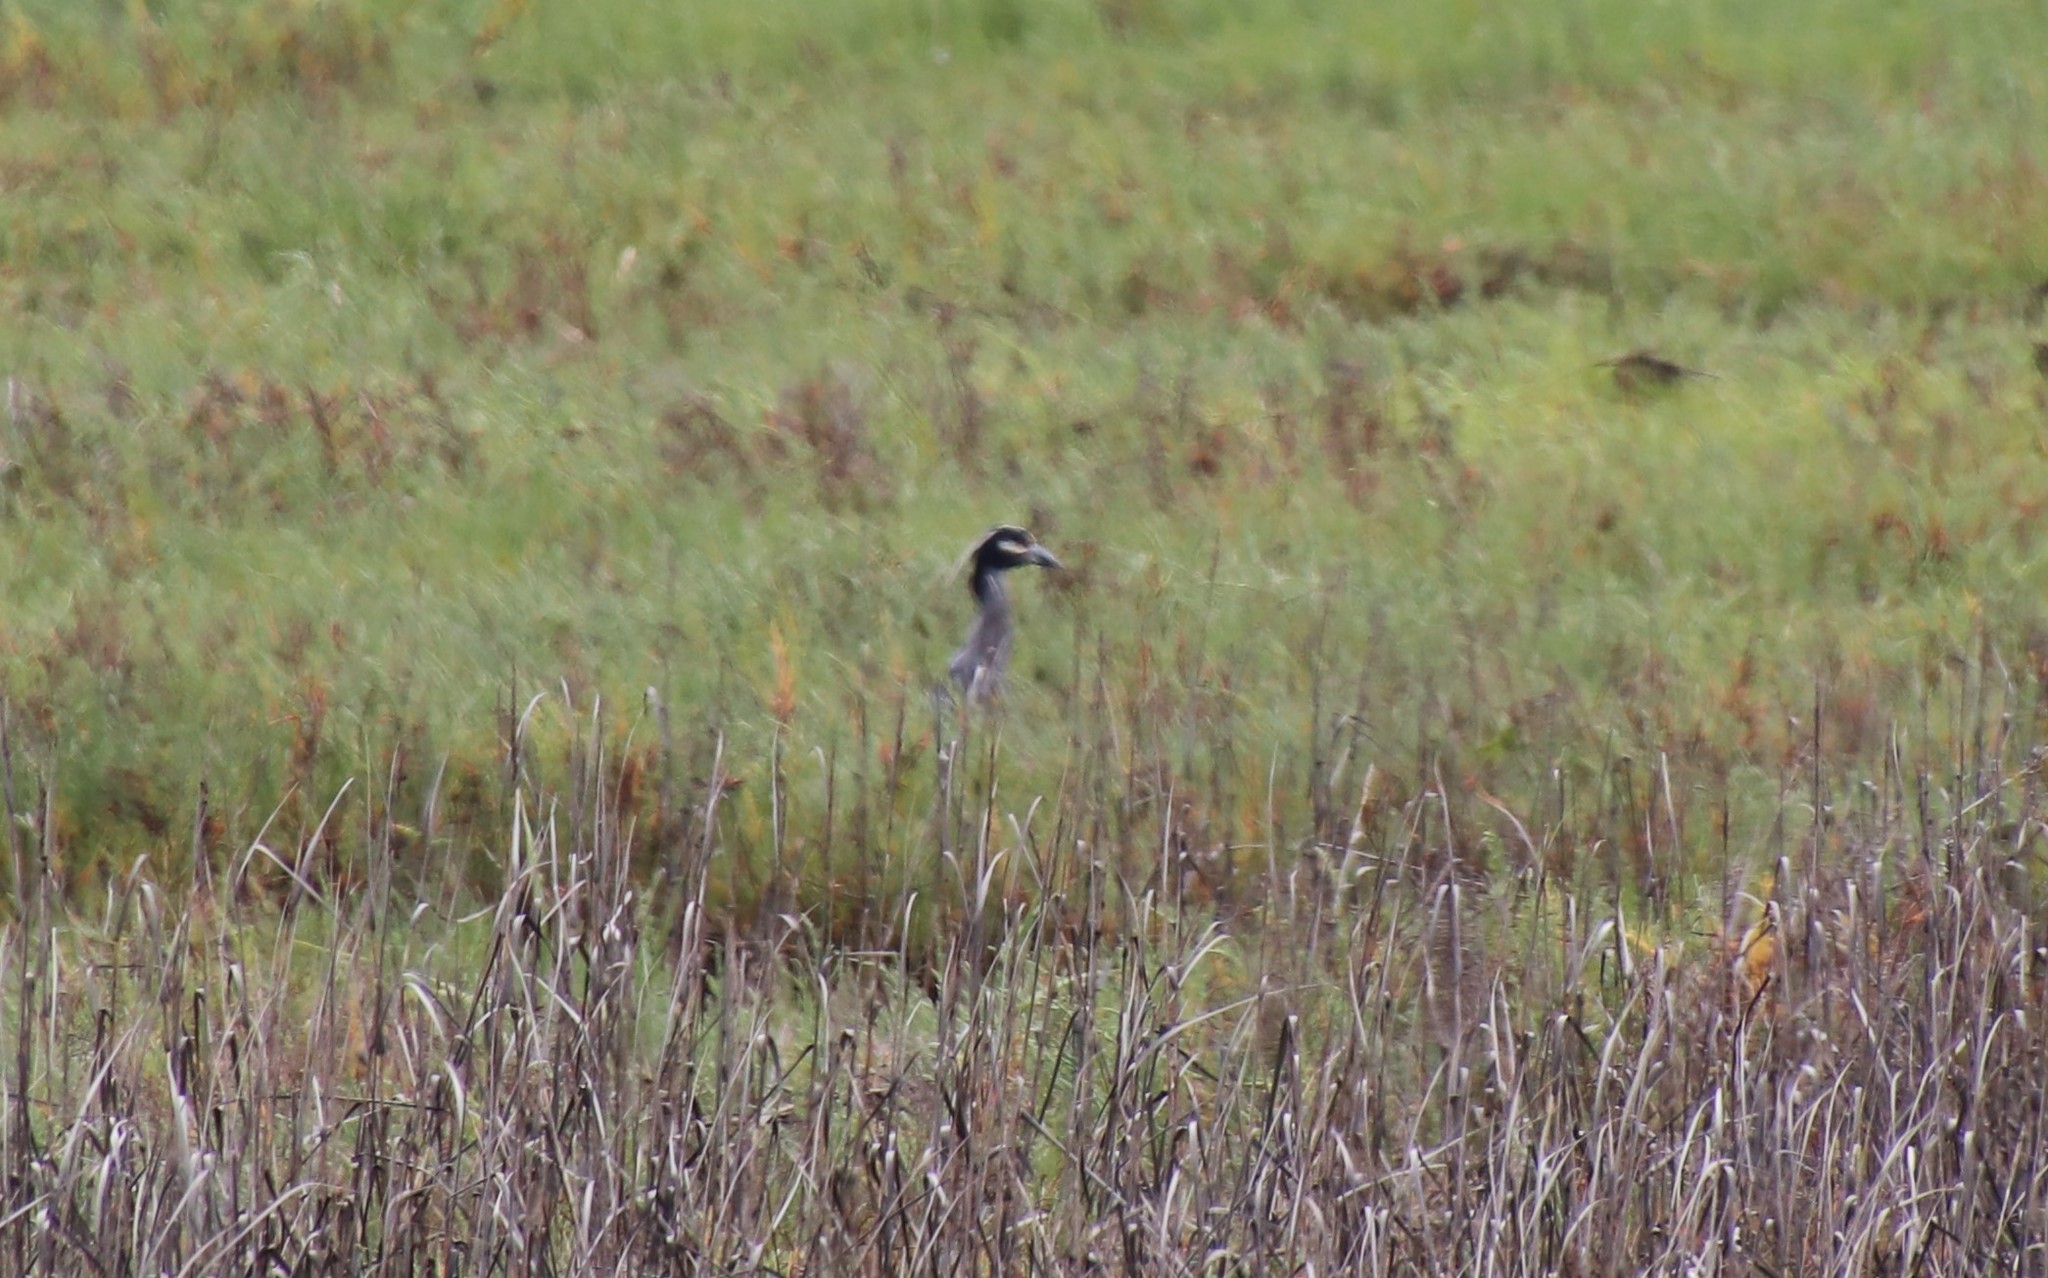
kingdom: Animalia
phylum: Chordata
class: Aves
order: Pelecaniformes
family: Ardeidae
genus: Nyctanassa
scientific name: Nyctanassa violacea
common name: Yellow-crowned night heron
